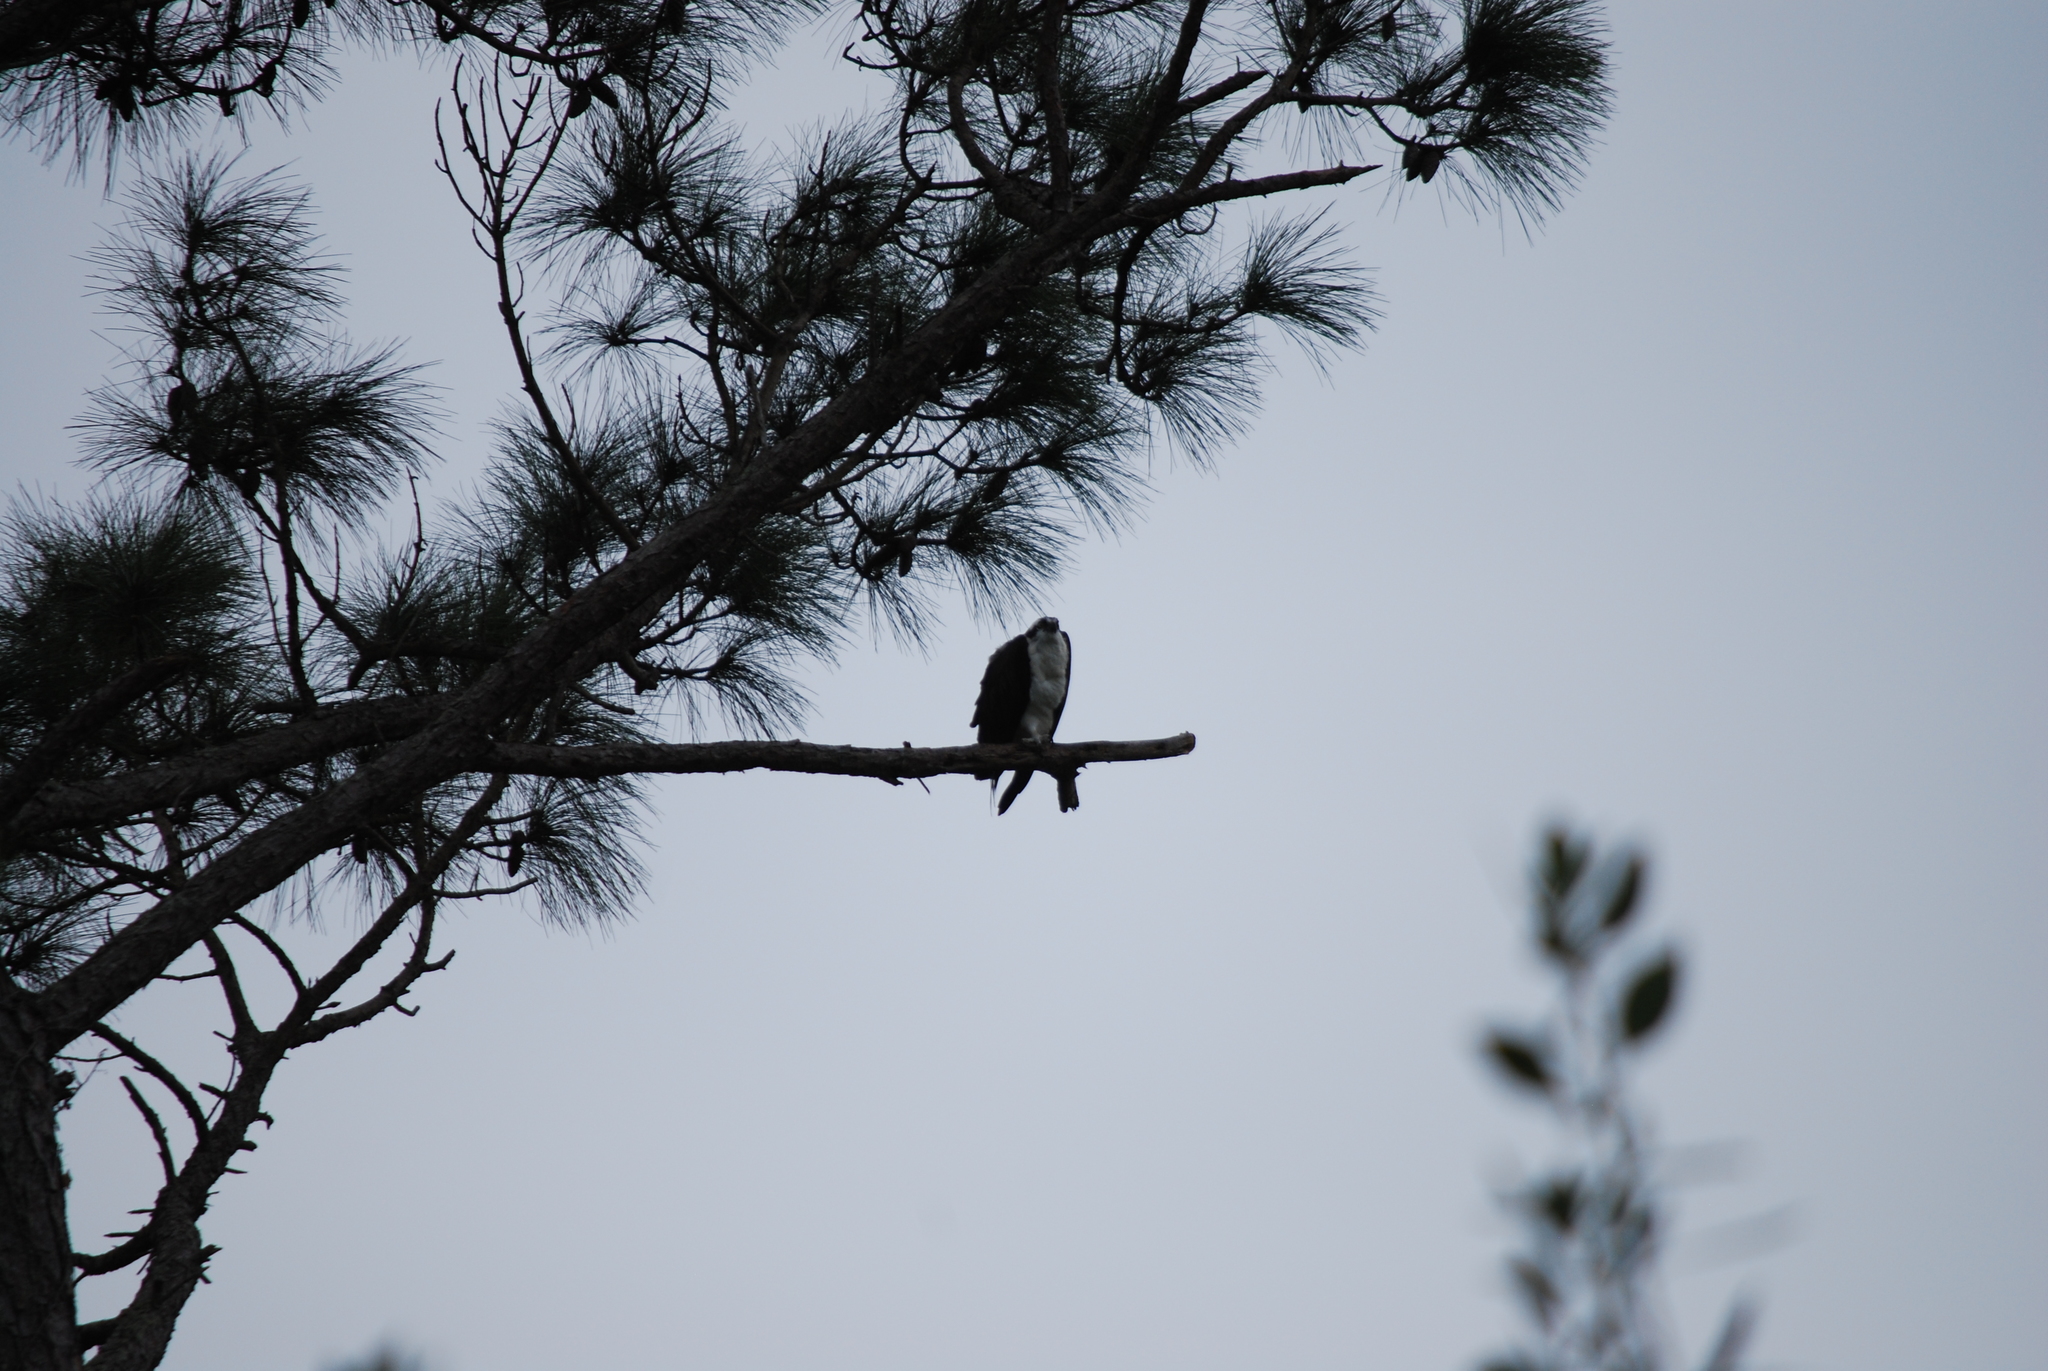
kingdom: Animalia
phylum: Chordata
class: Aves
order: Accipitriformes
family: Pandionidae
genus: Pandion
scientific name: Pandion haliaetus
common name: Osprey
